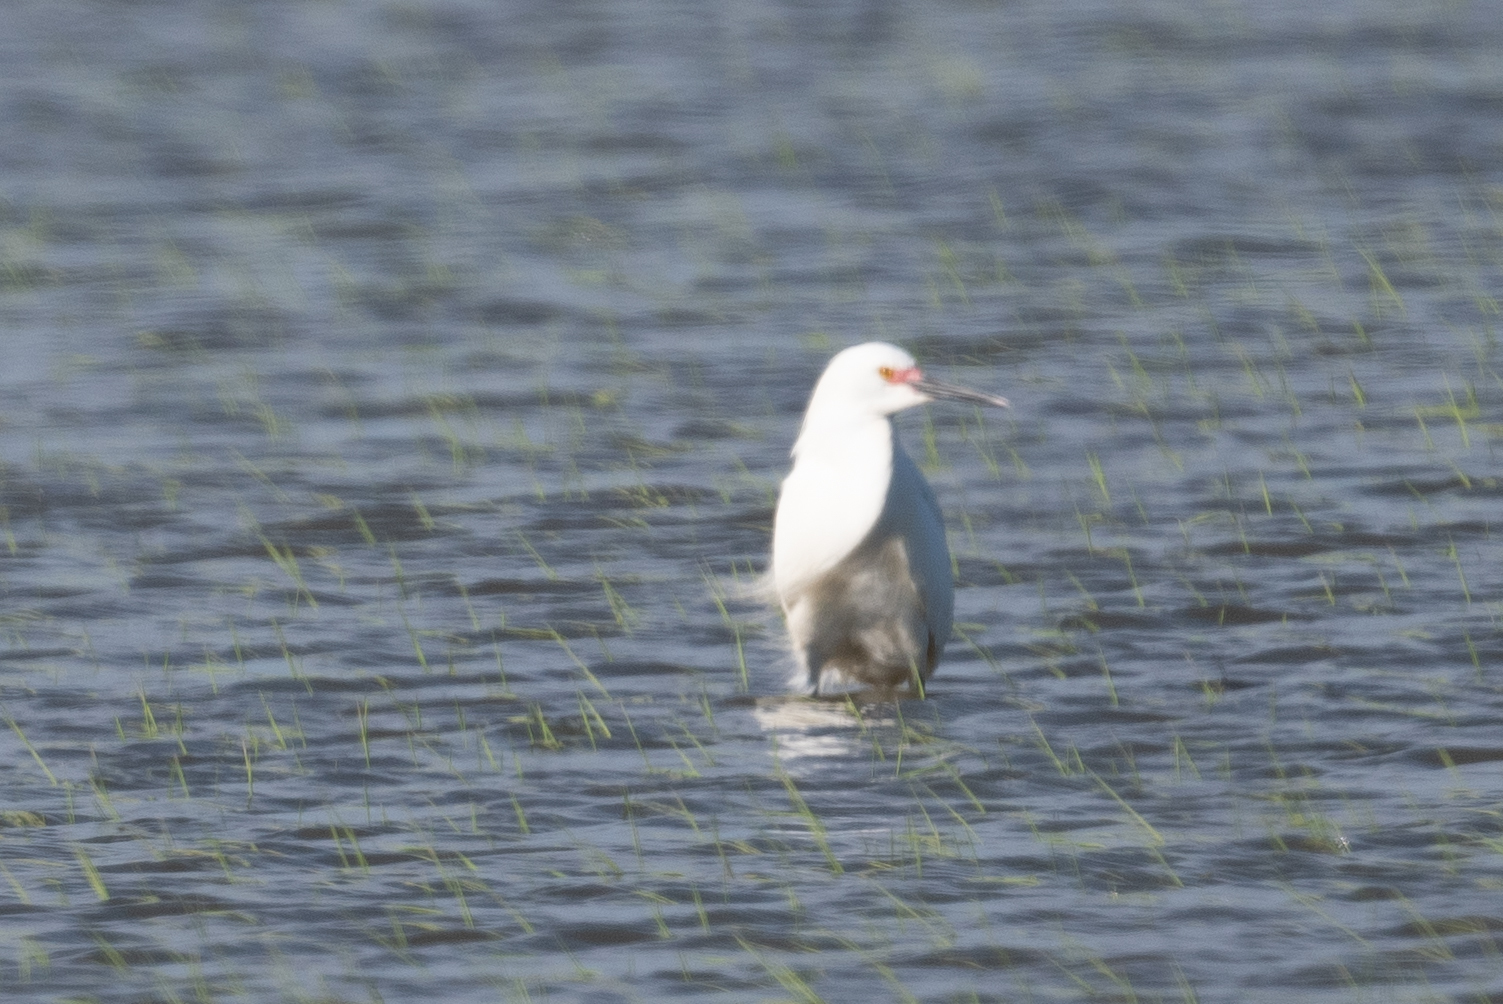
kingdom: Animalia
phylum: Chordata
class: Aves
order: Pelecaniformes
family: Ardeidae
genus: Egretta
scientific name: Egretta thula
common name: Snowy egret
